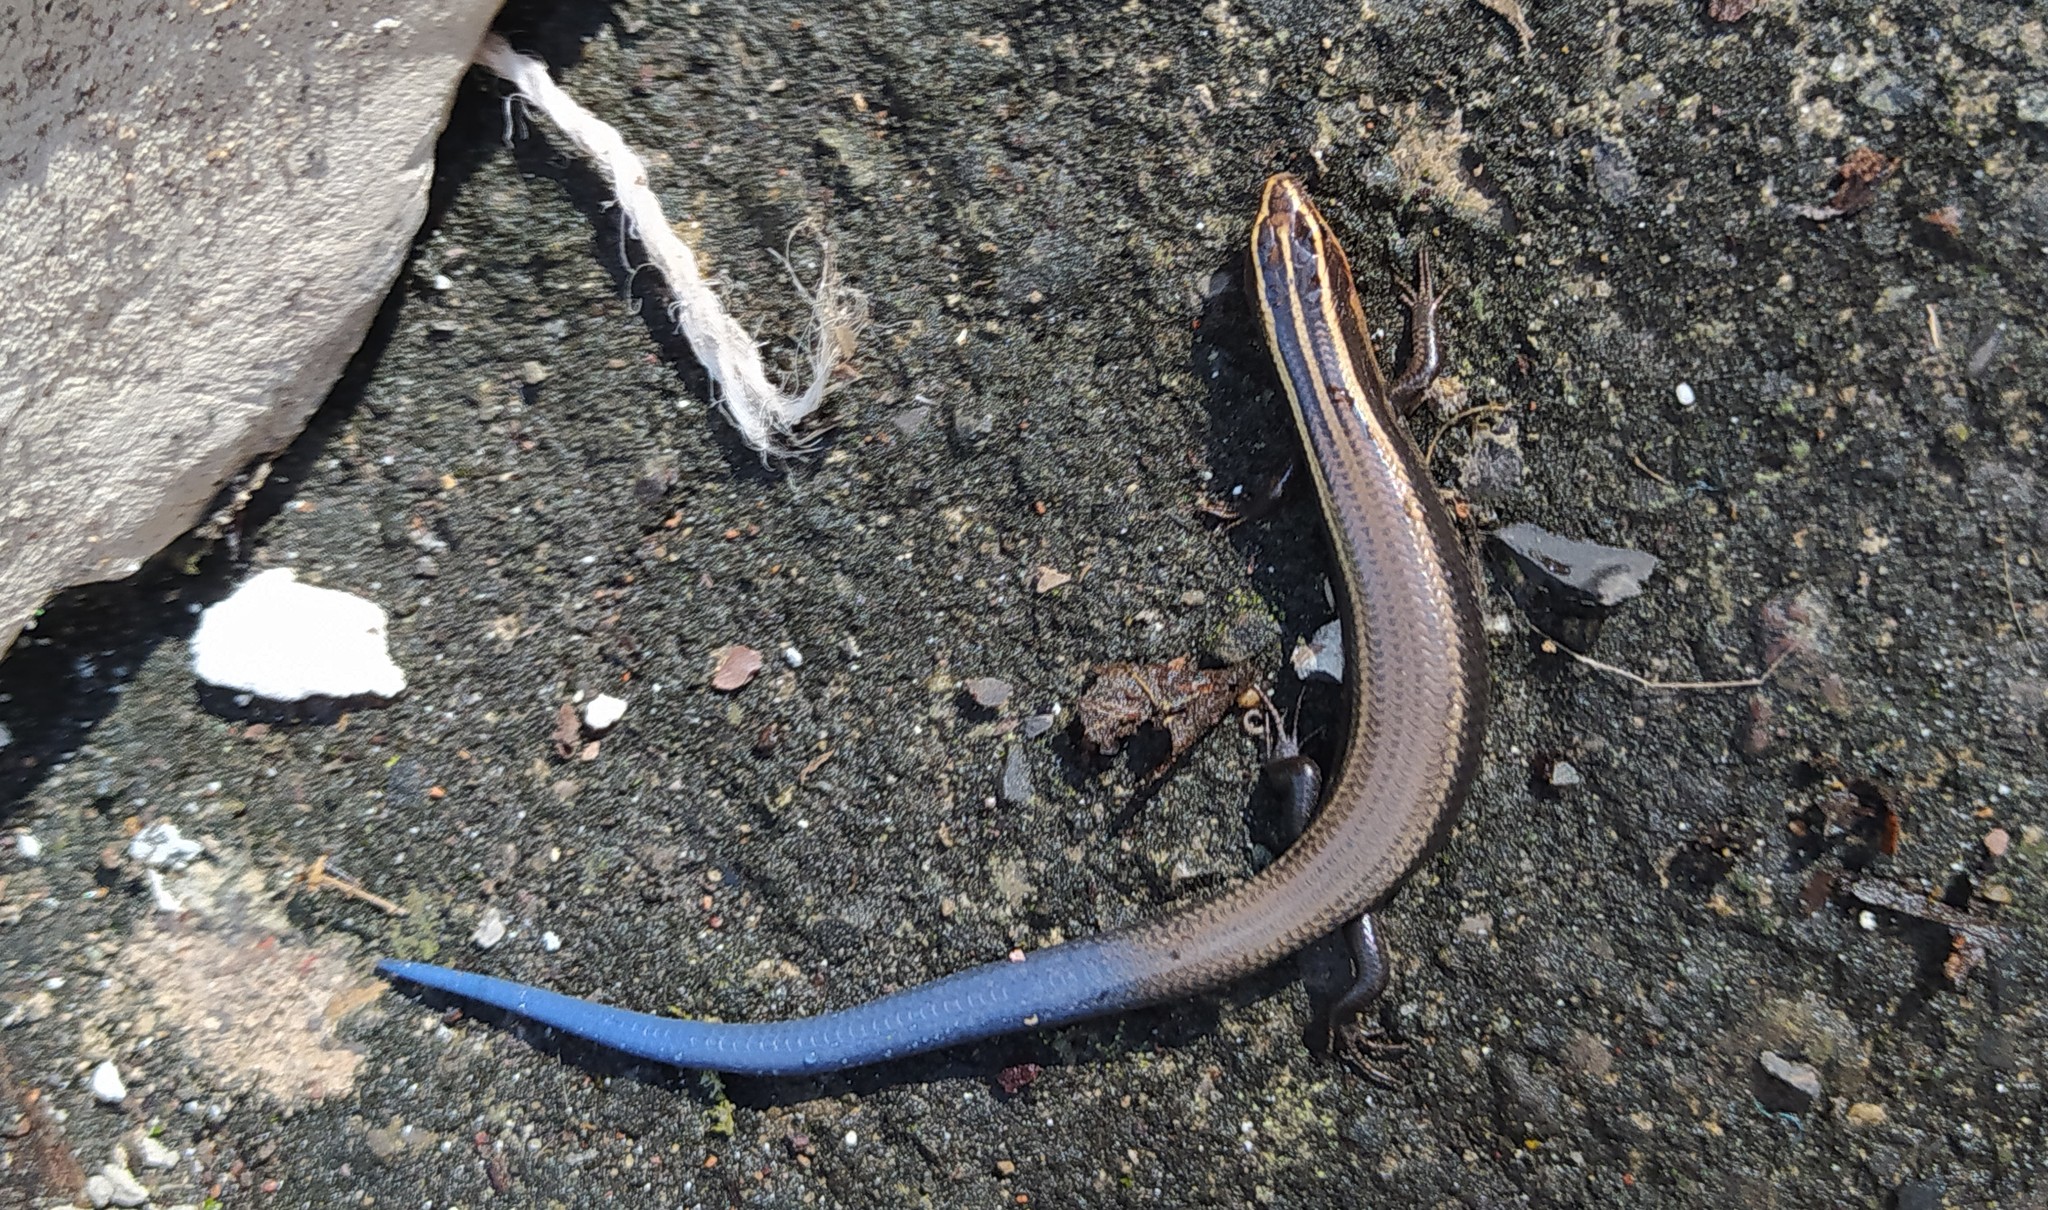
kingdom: Animalia
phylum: Chordata
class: Squamata
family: Scincidae
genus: Plestiodon
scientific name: Plestiodon lynxe
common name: Oak forest skink
